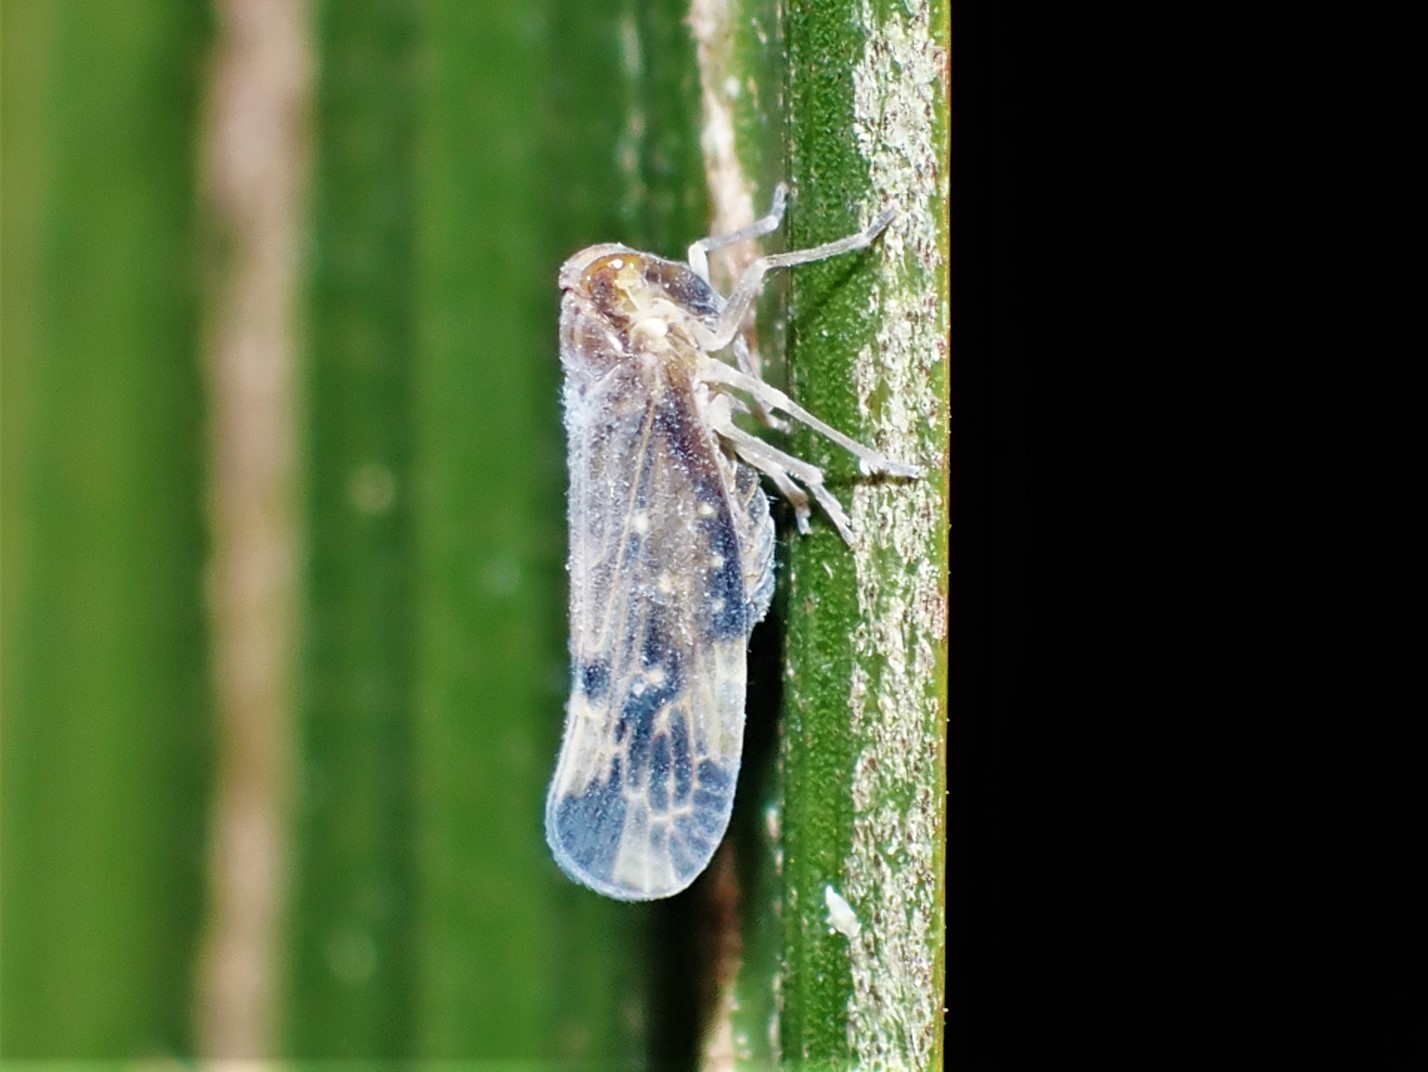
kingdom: Animalia
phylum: Arthropoda
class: Insecta
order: Hemiptera
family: Derbidae
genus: Eocenchrea
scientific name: Eocenchrea maorica
